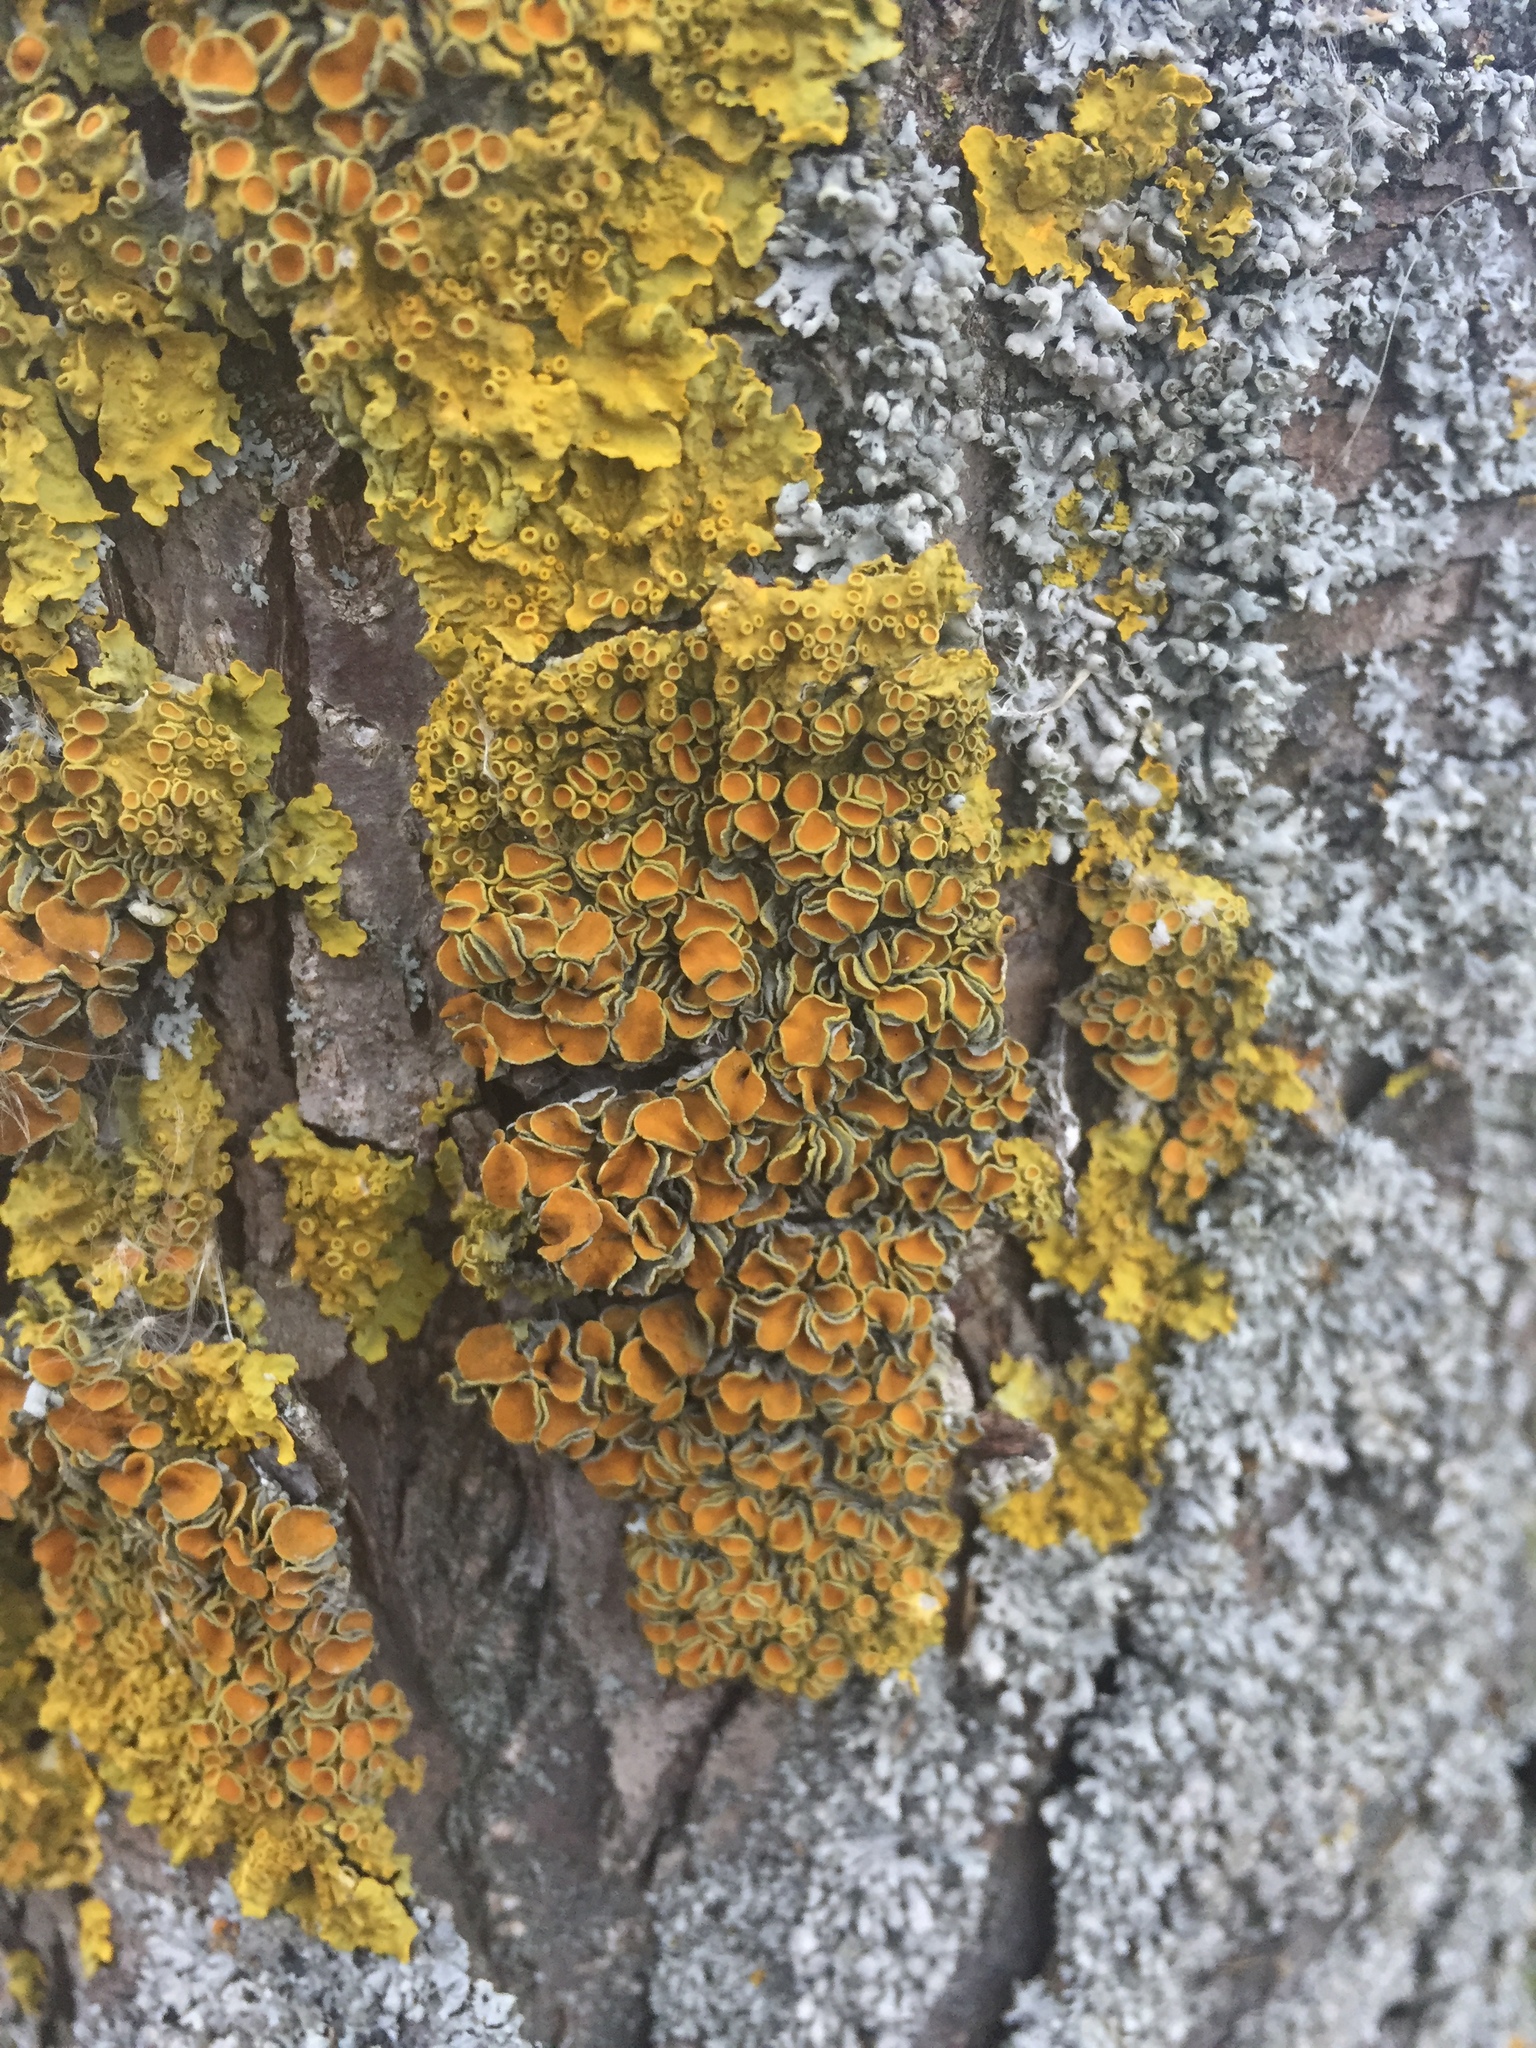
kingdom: Fungi
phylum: Ascomycota
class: Lecanoromycetes
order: Teloschistales
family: Teloschistaceae
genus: Xanthoria
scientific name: Xanthoria parietina
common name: Common orange lichen
